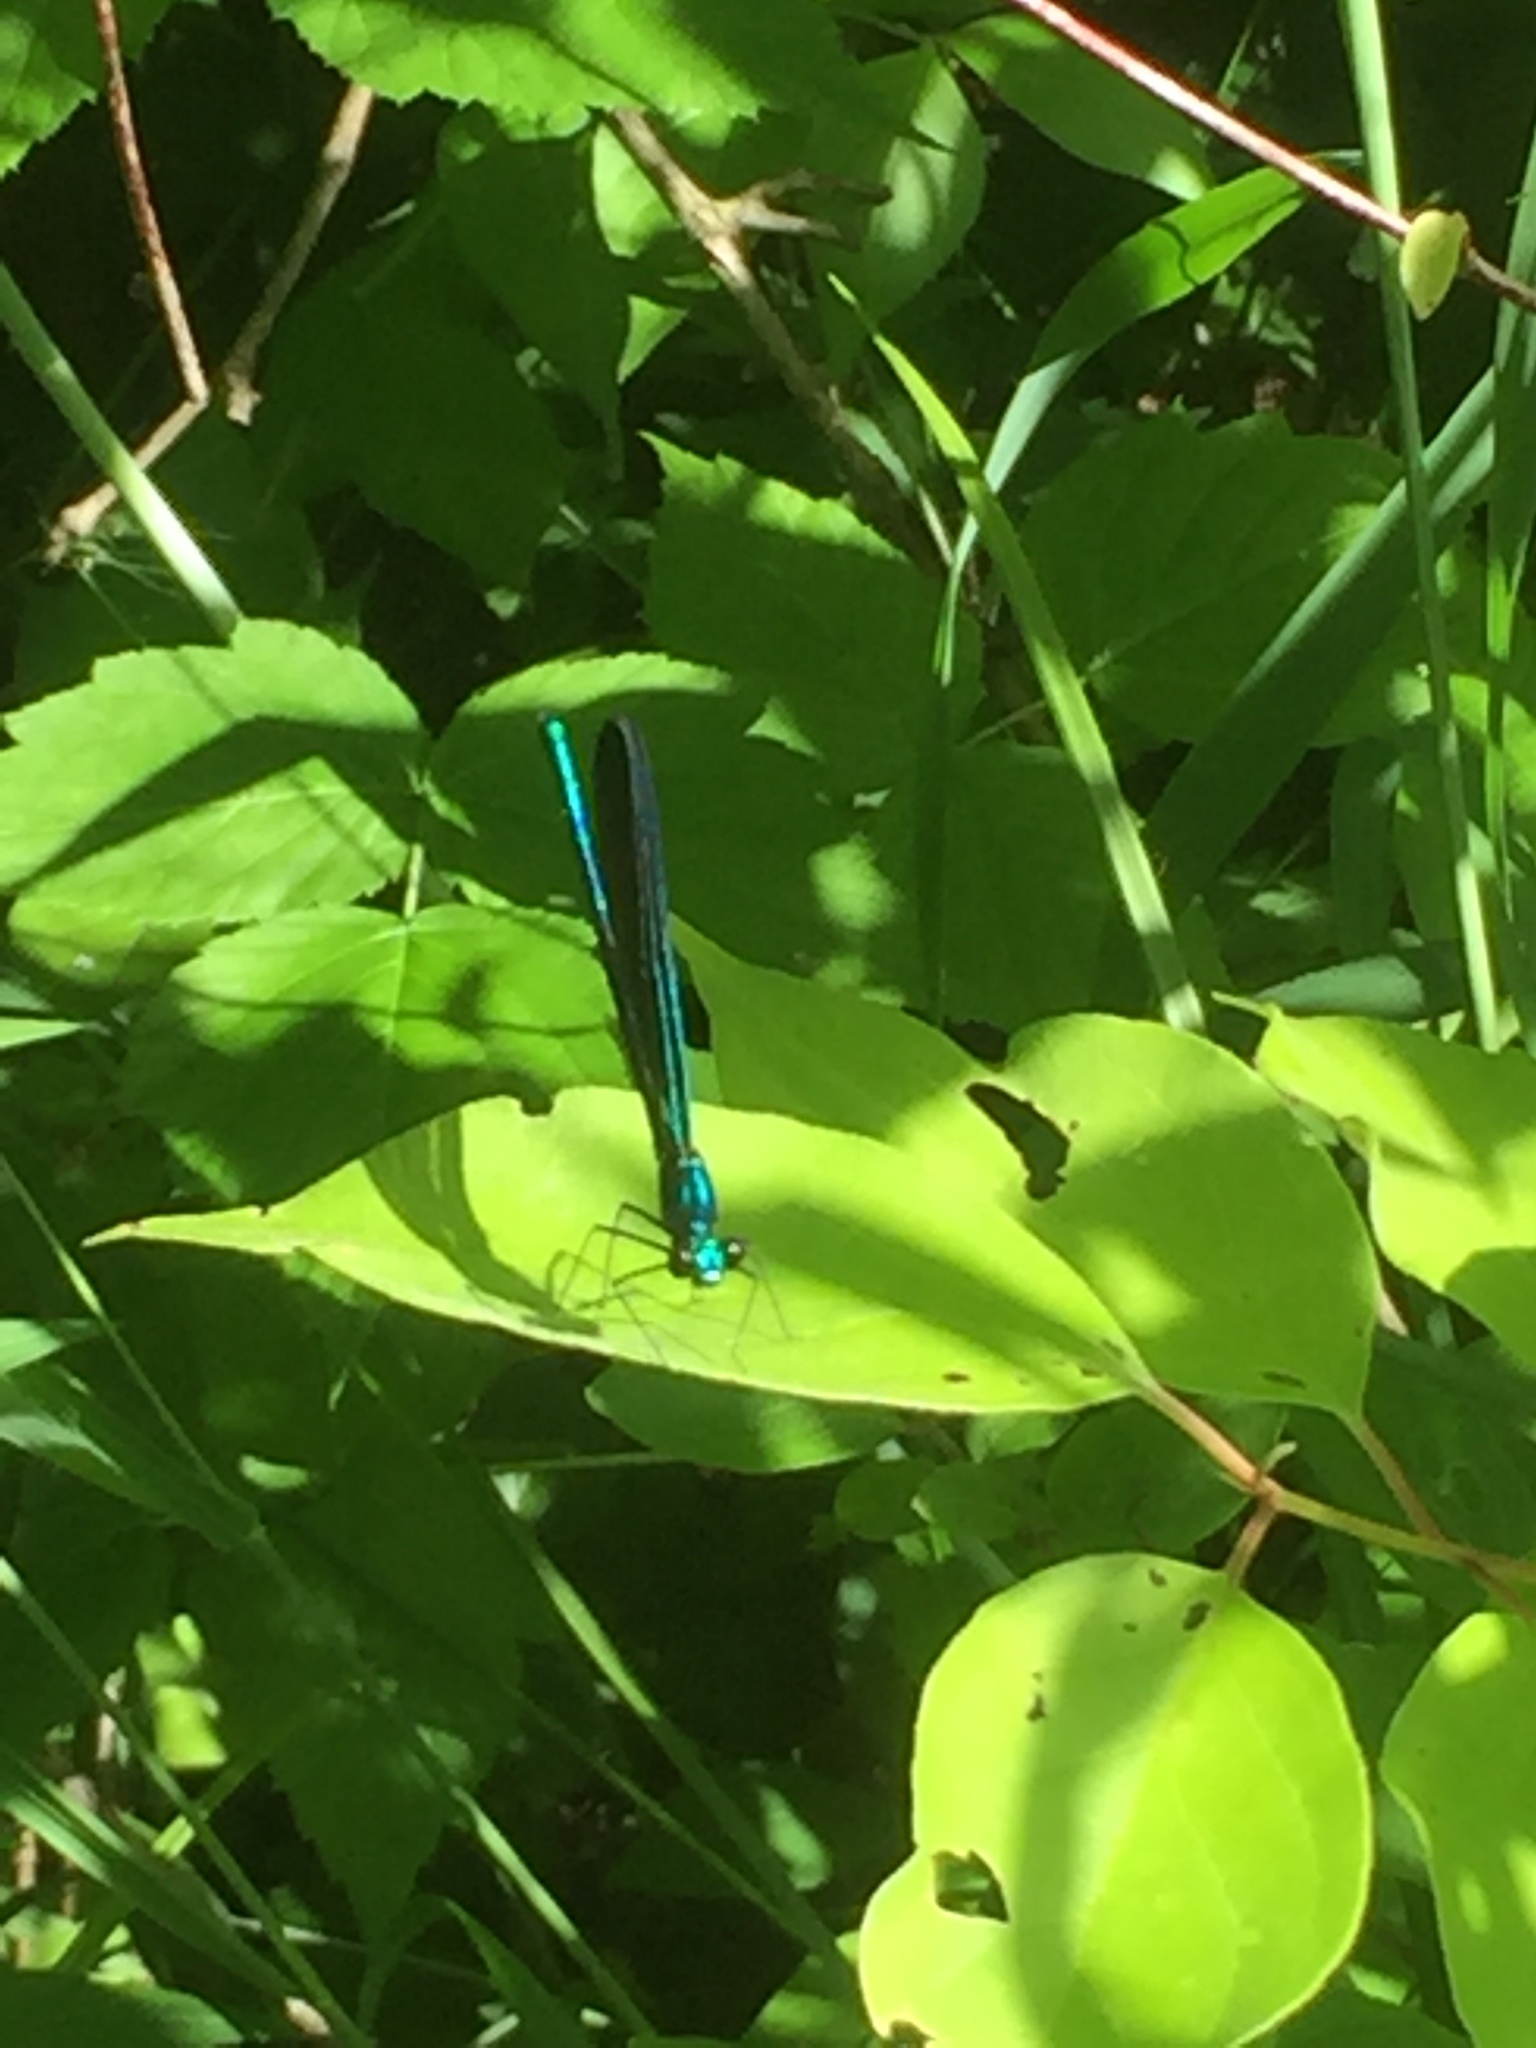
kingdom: Animalia
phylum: Arthropoda
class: Insecta
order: Odonata
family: Calopterygidae
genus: Calopteryx
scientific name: Calopteryx maculata
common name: Ebony jewelwing
